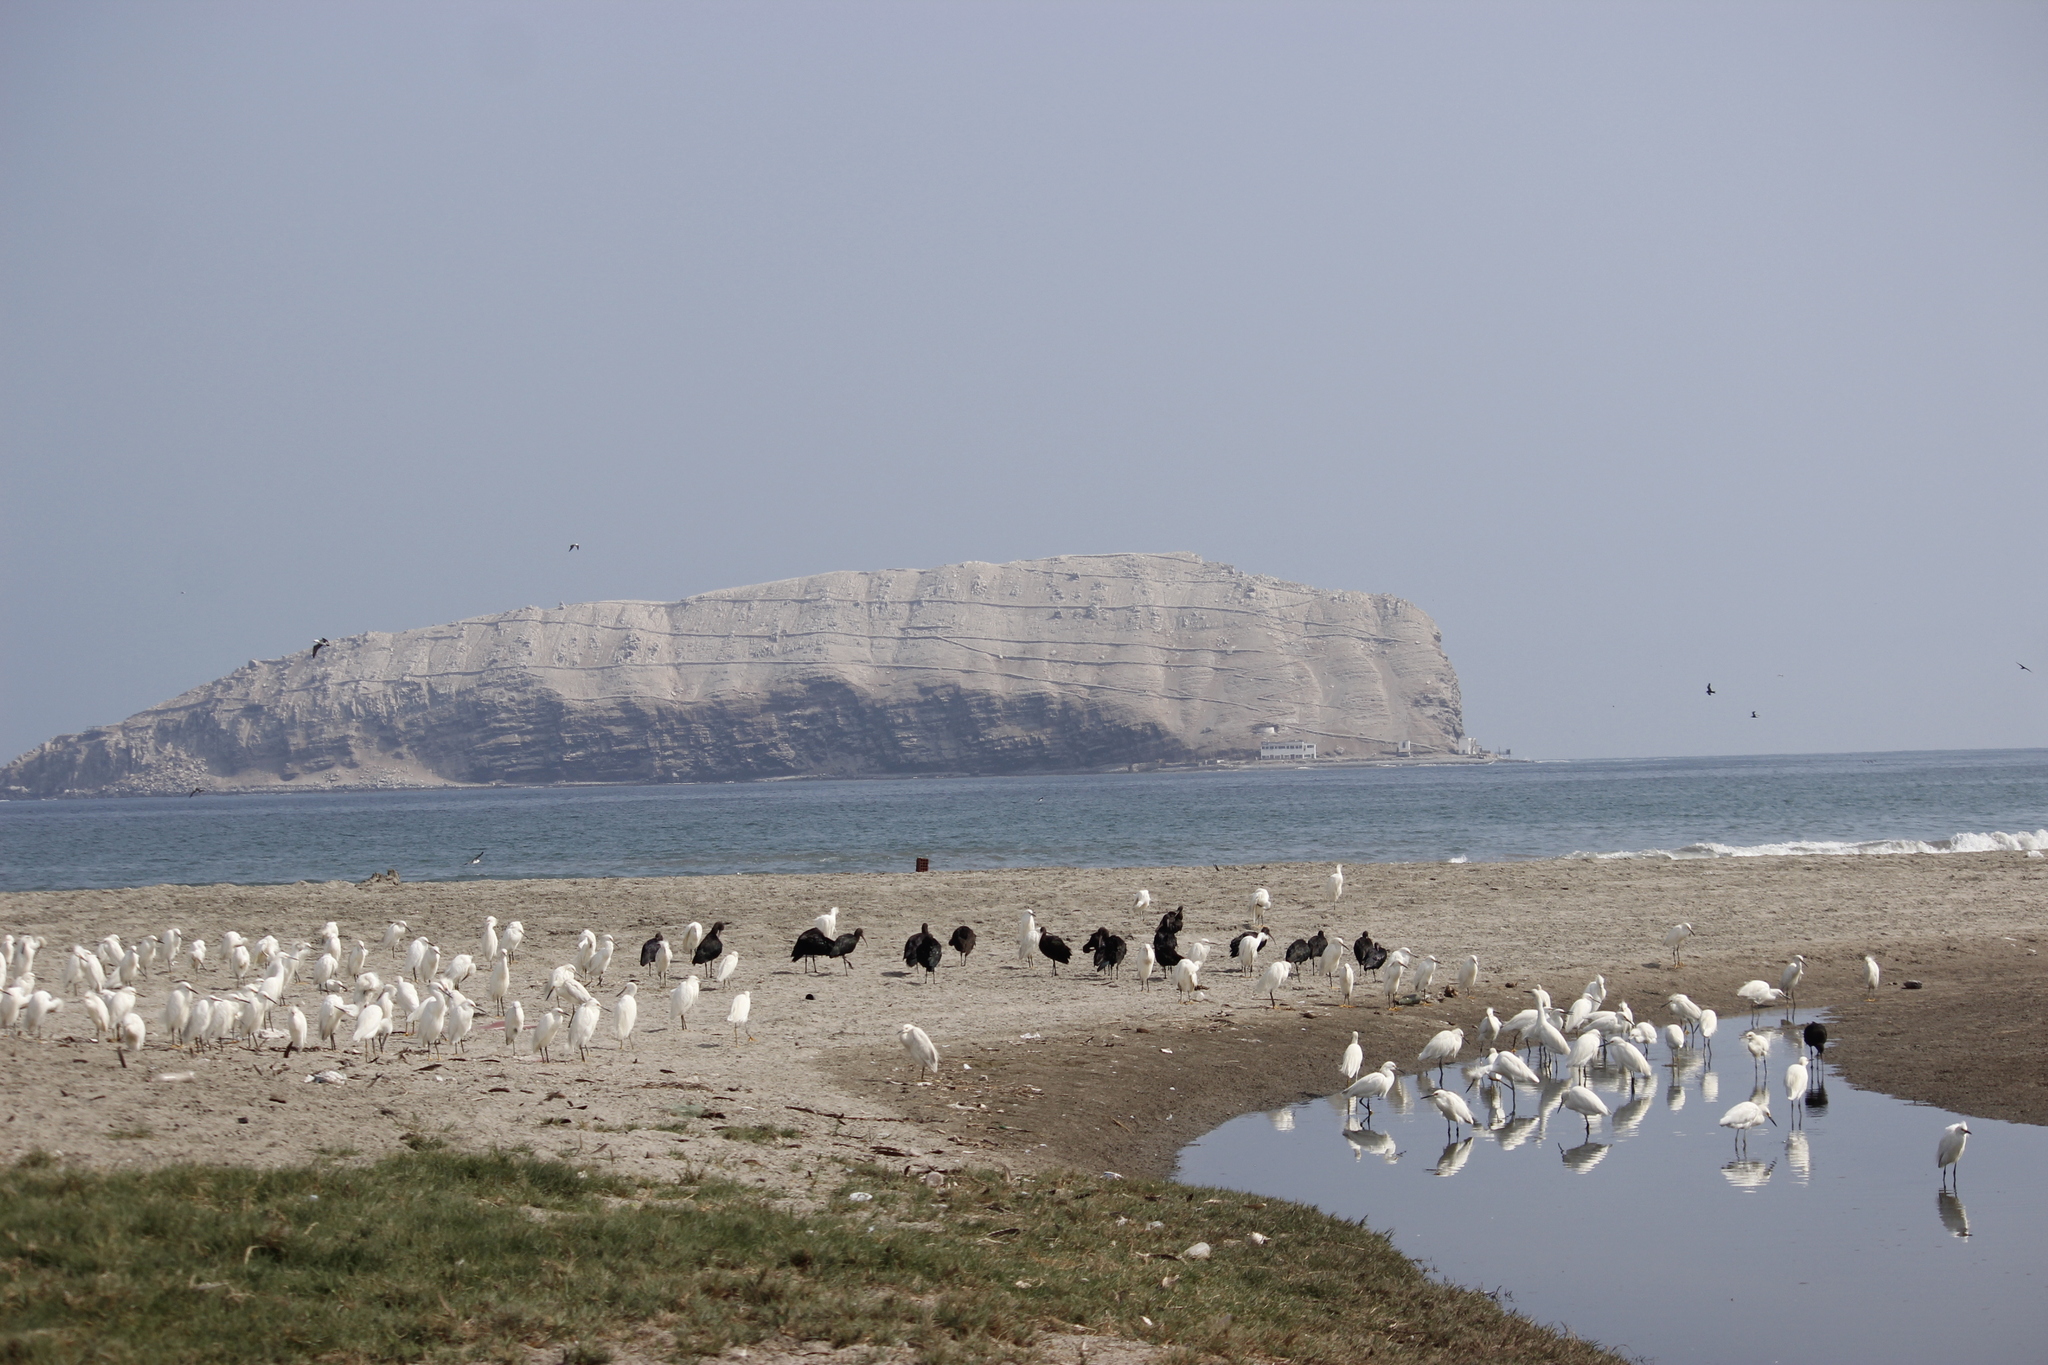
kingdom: Animalia
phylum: Chordata
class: Aves
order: Pelecaniformes
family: Ardeidae
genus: Egretta
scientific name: Egretta thula
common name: Snowy egret
